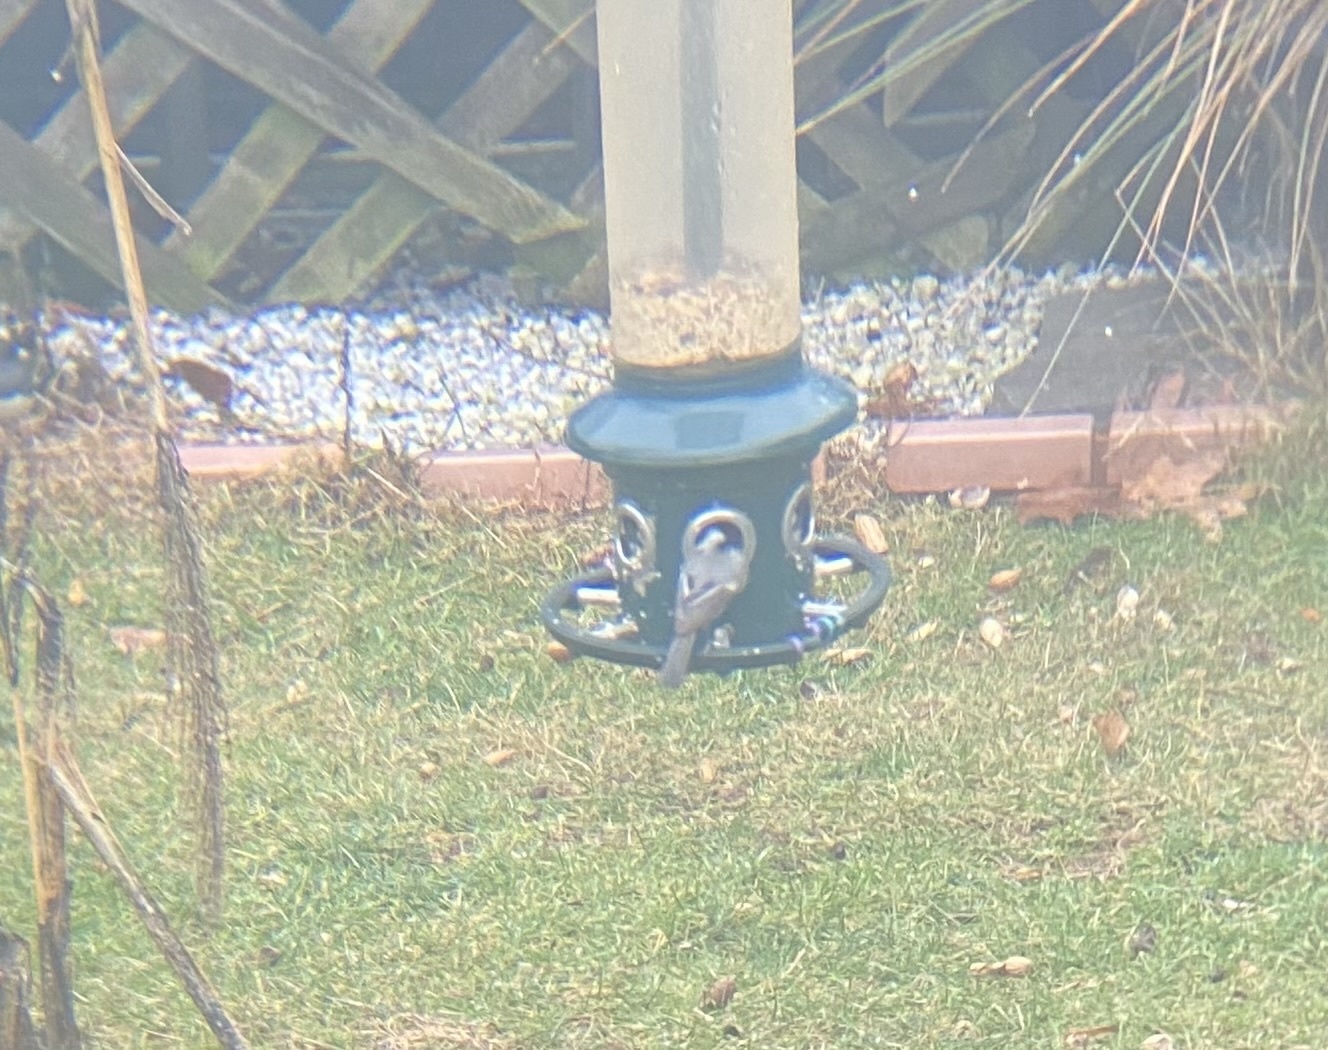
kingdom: Animalia
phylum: Chordata
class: Aves
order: Passeriformes
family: Paridae
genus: Poecile
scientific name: Poecile atricapillus
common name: Black-capped chickadee
